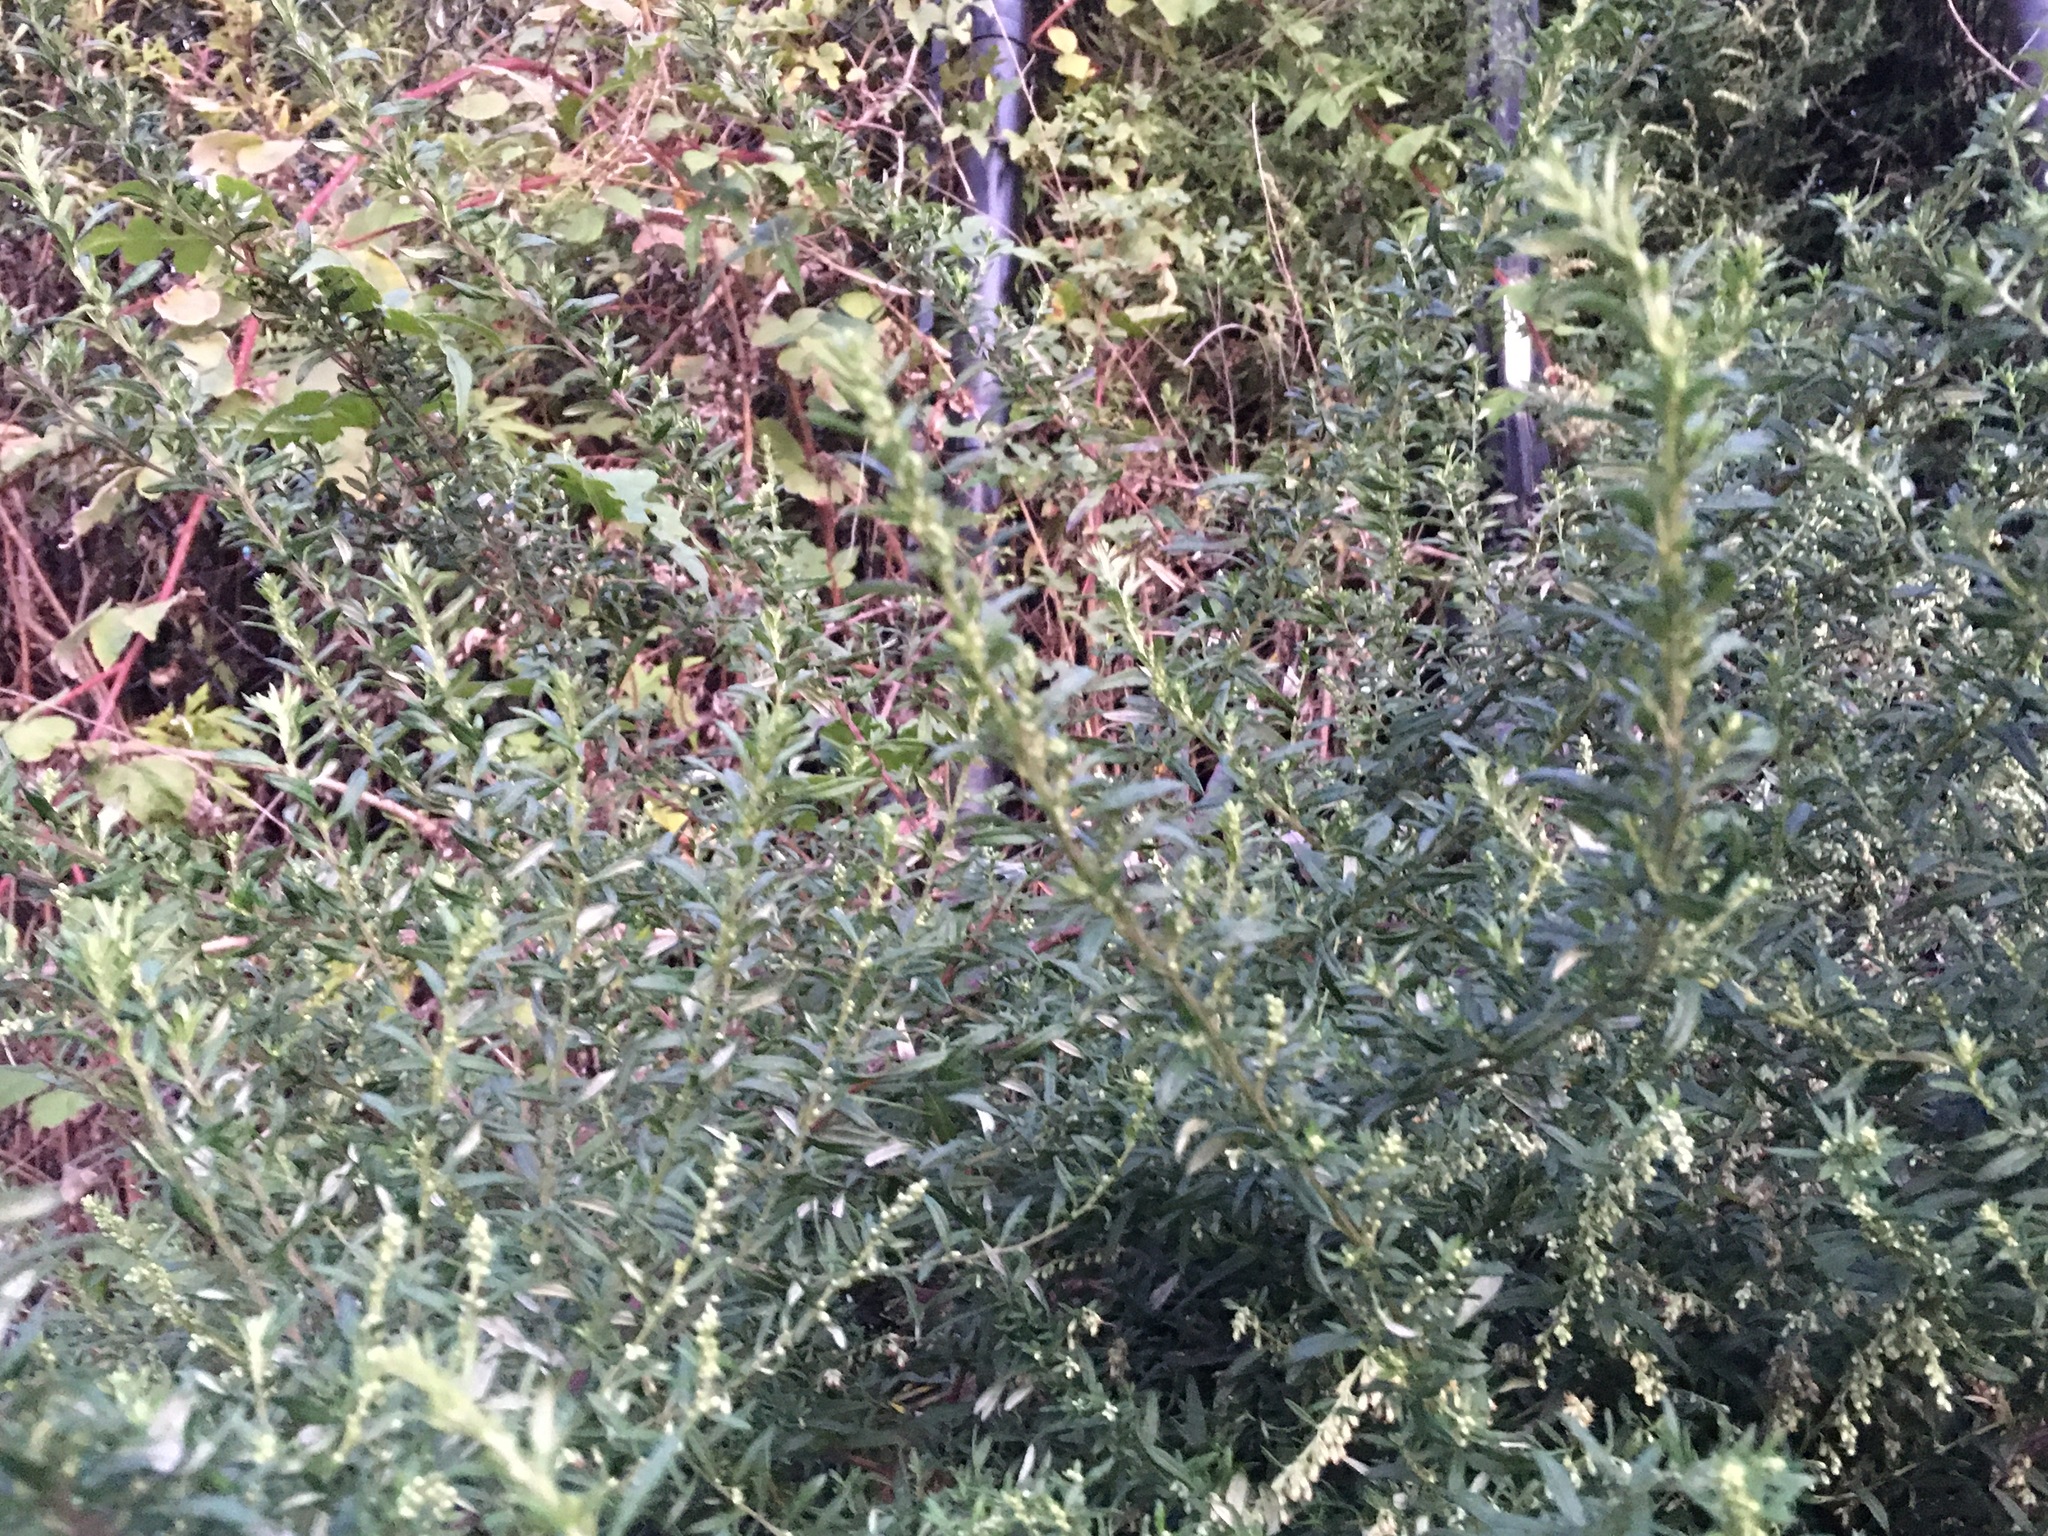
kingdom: Plantae
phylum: Tracheophyta
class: Magnoliopsida
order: Asterales
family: Asteraceae
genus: Artemisia
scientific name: Artemisia vulgaris
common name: Mugwort
